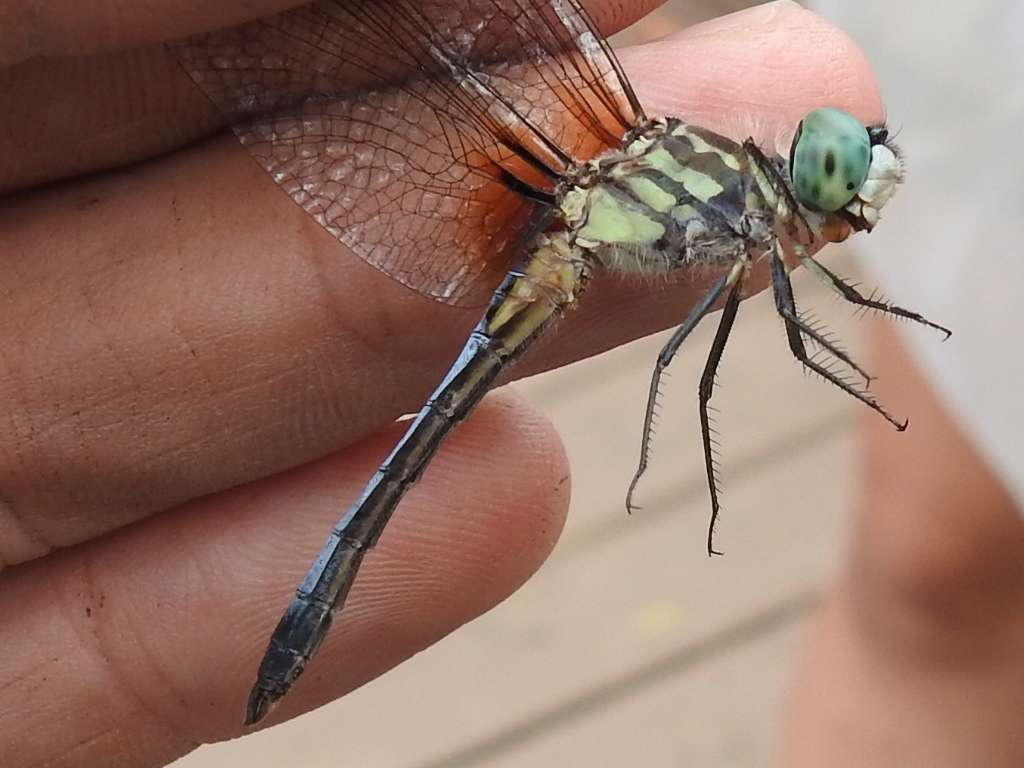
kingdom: Animalia
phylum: Arthropoda
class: Insecta
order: Odonata
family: Libellulidae
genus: Pachydiplax
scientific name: Pachydiplax longipennis
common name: Blue dasher
